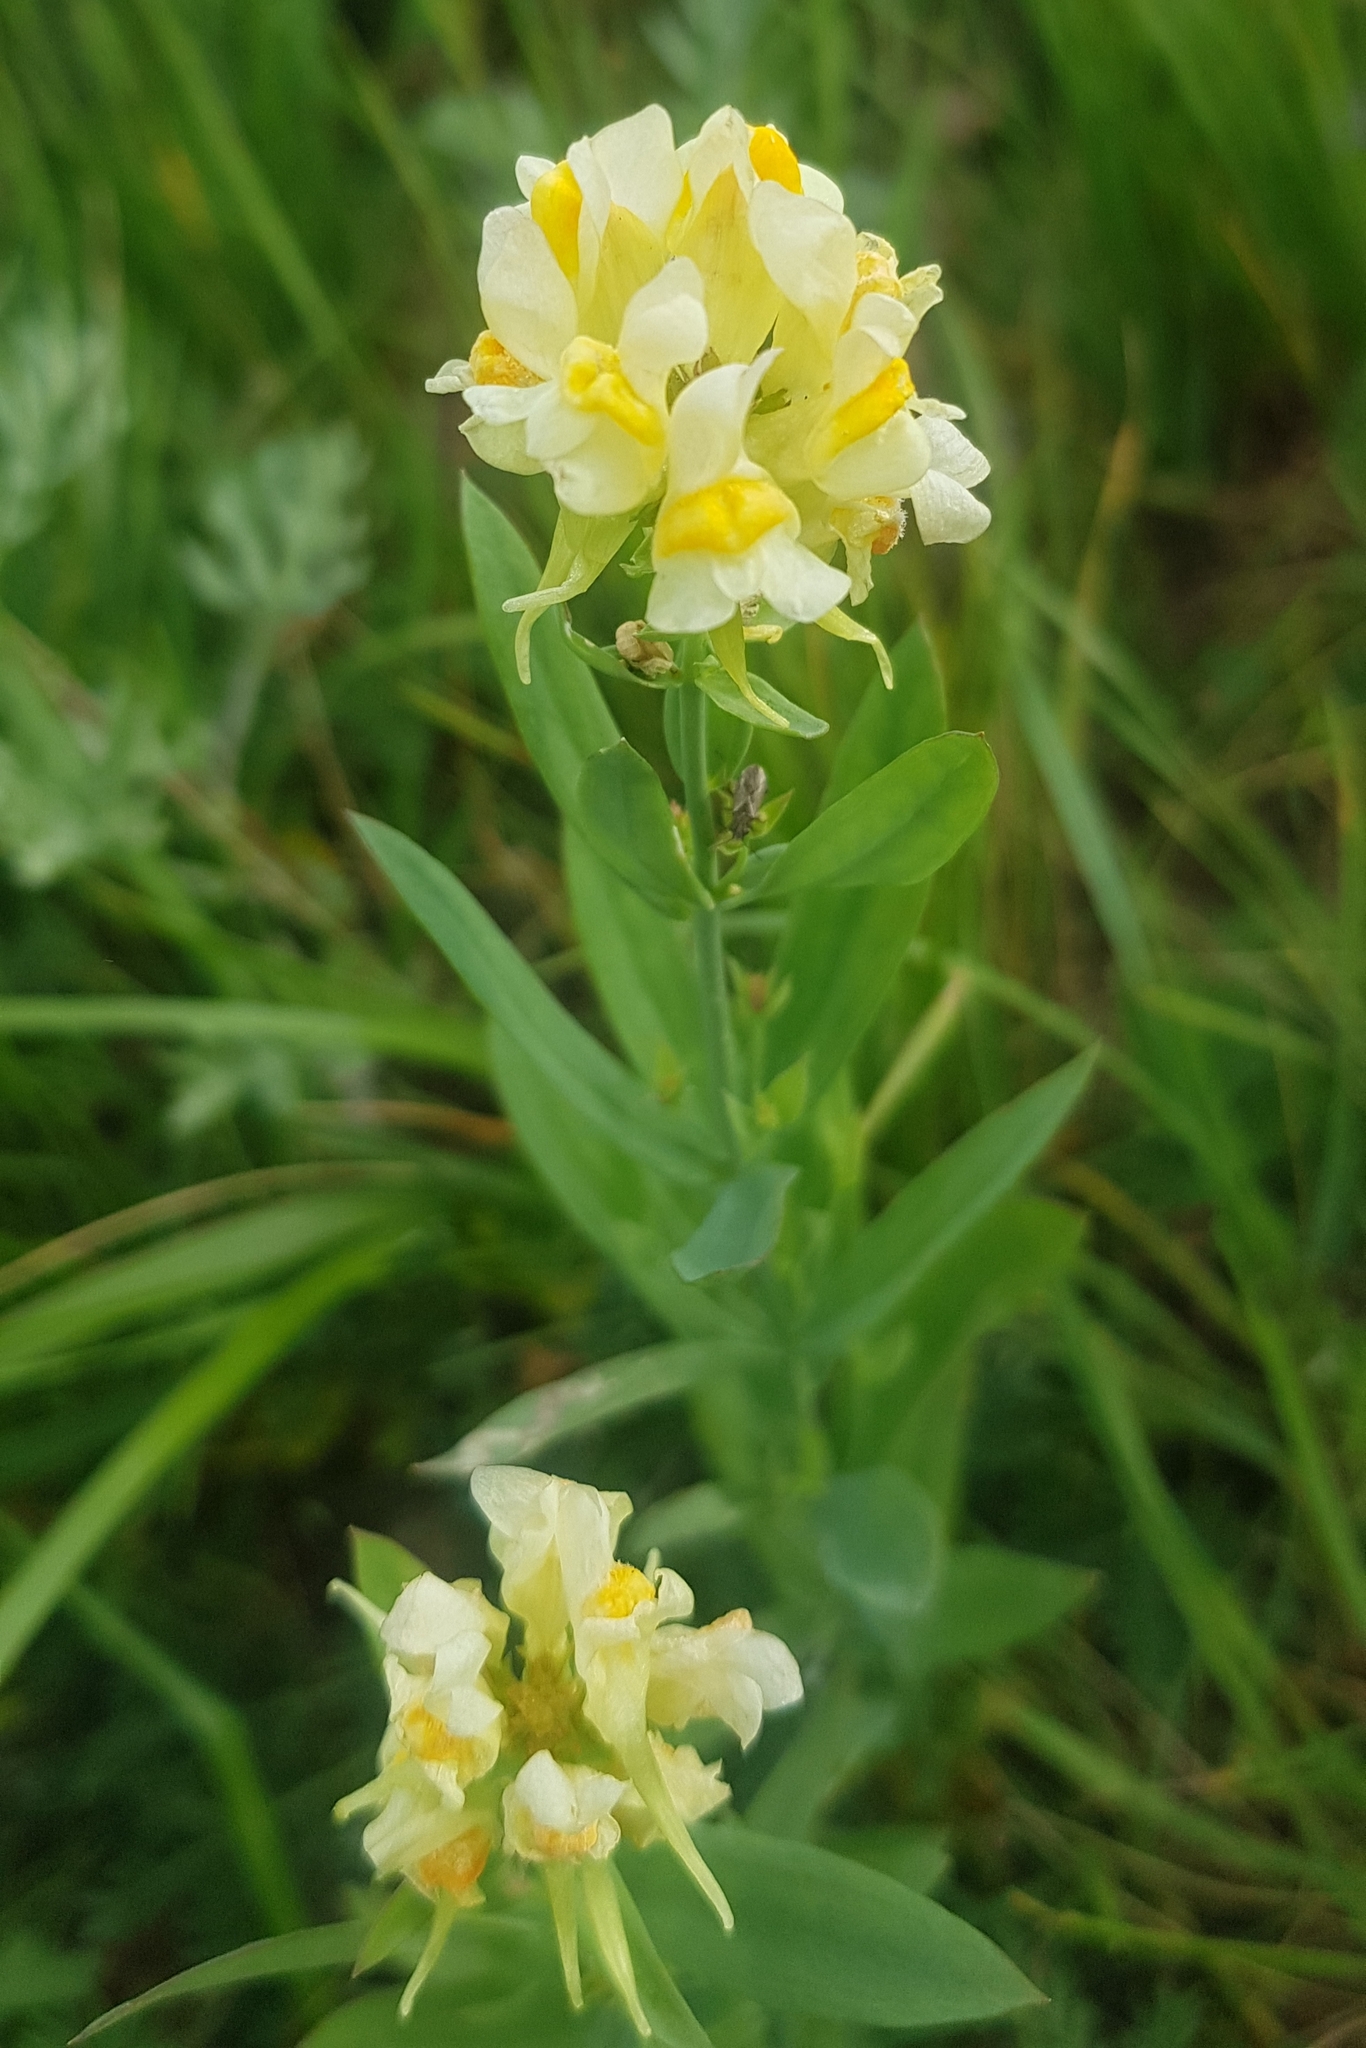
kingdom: Plantae
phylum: Tracheophyta
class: Magnoliopsida
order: Lamiales
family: Plantaginaceae
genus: Linaria
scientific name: Linaria acutiloba
